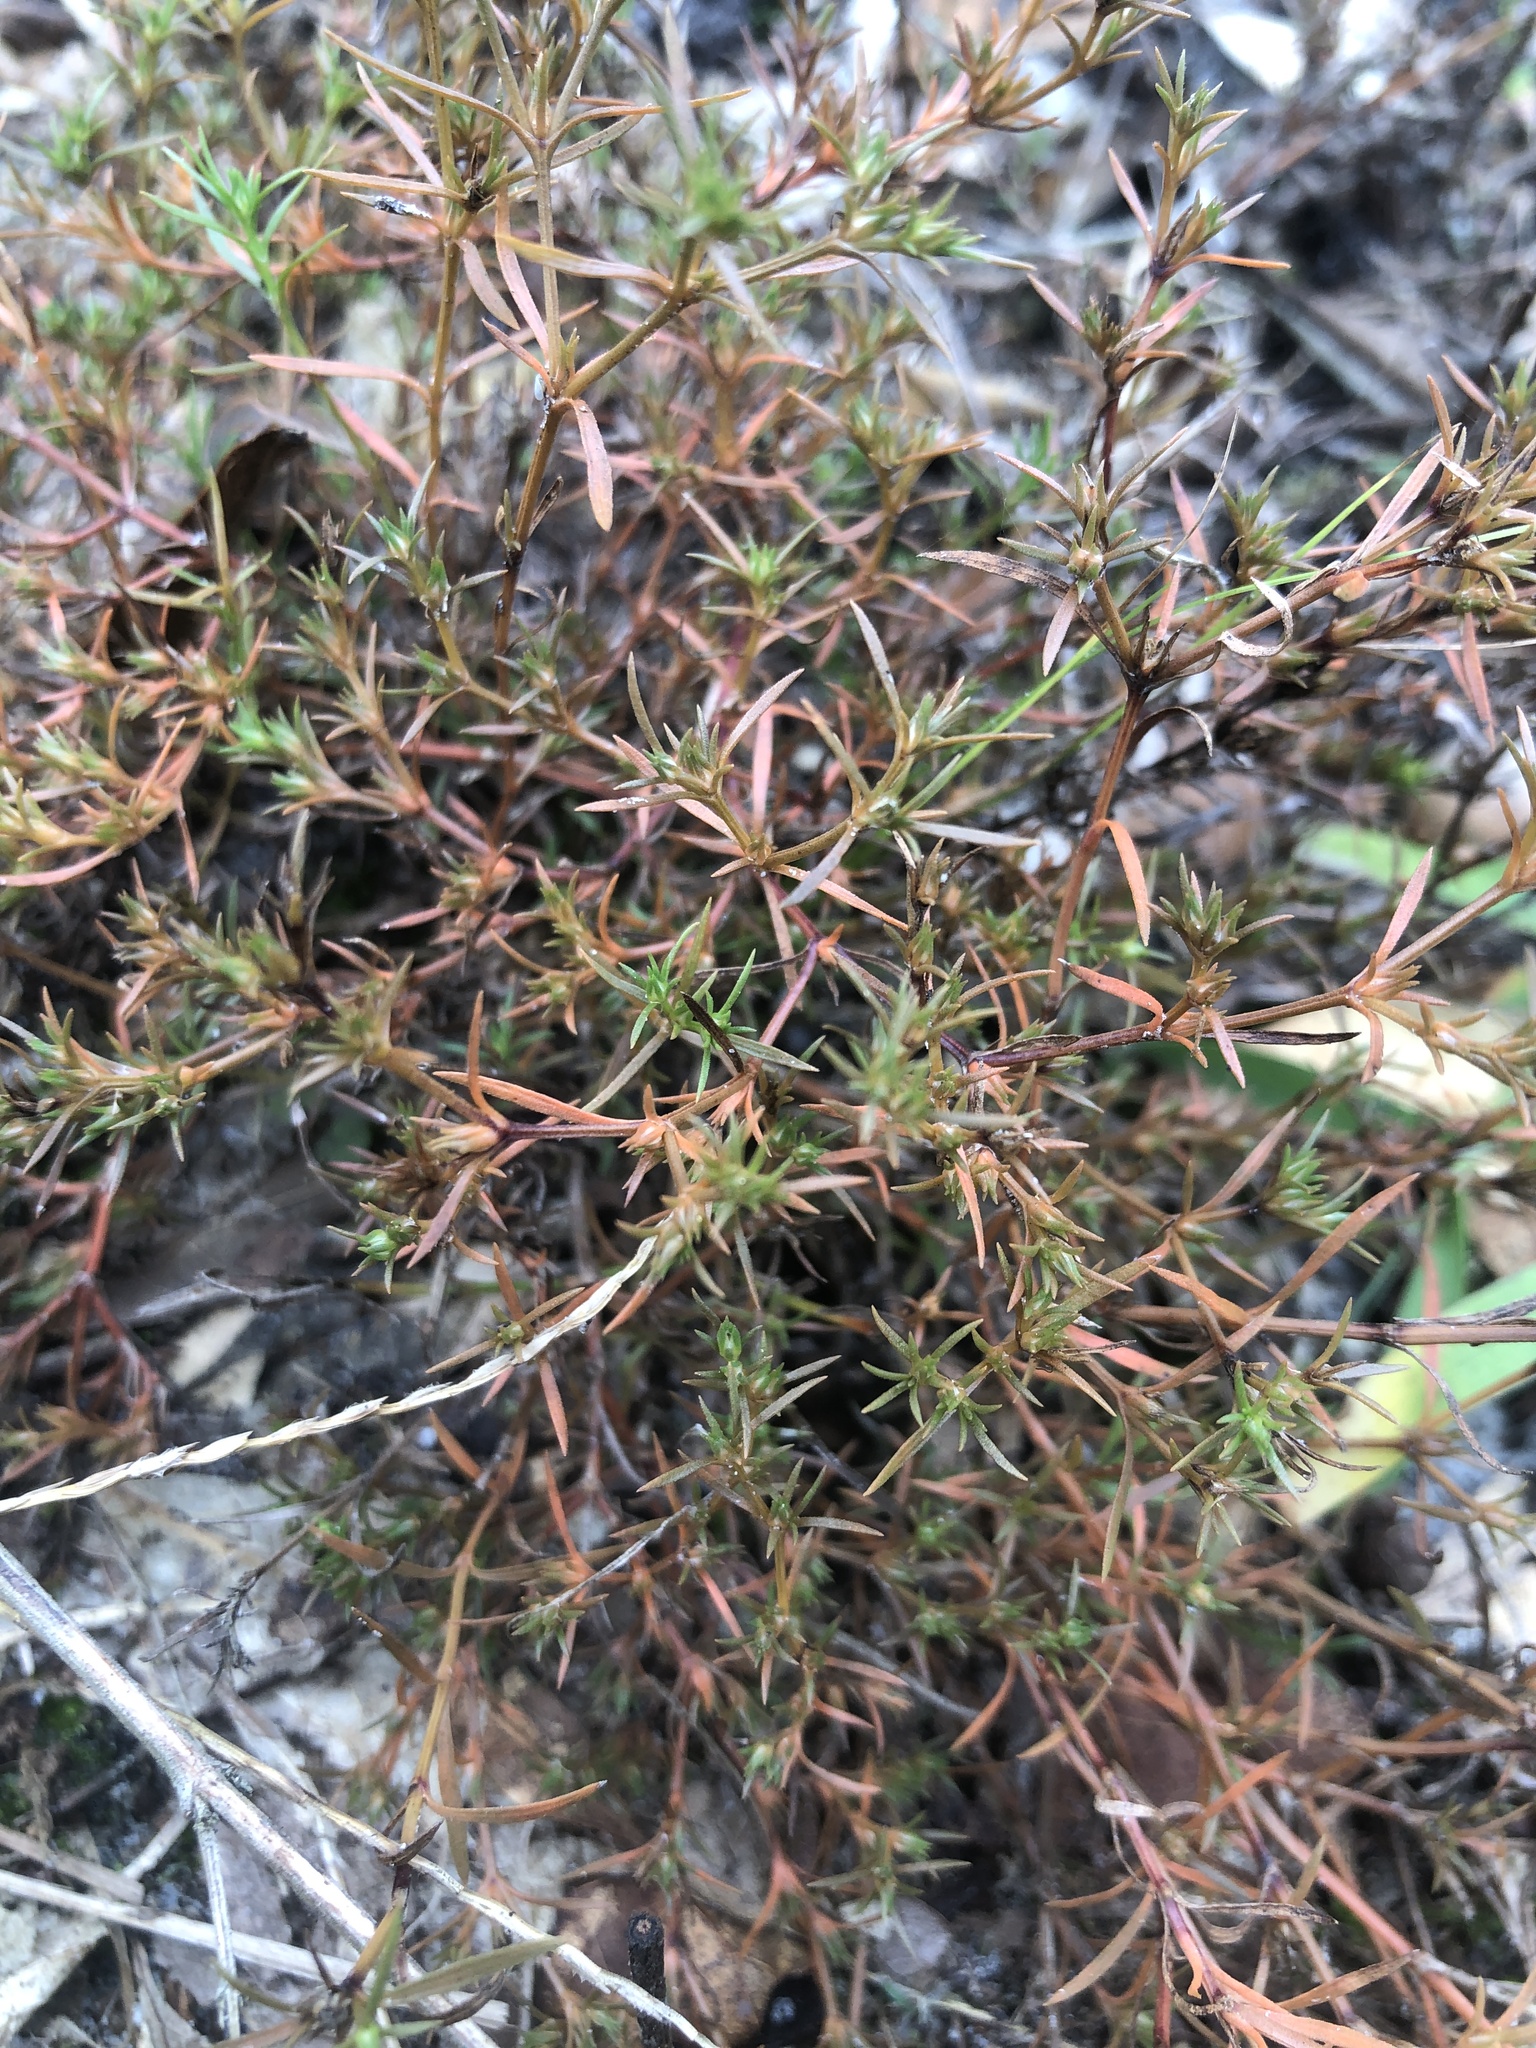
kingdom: Plantae
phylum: Tracheophyta
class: Magnoliopsida
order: Lamiales
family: Tetrachondraceae
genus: Polypremum
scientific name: Polypremum procumbens
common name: Juniper-leaf
